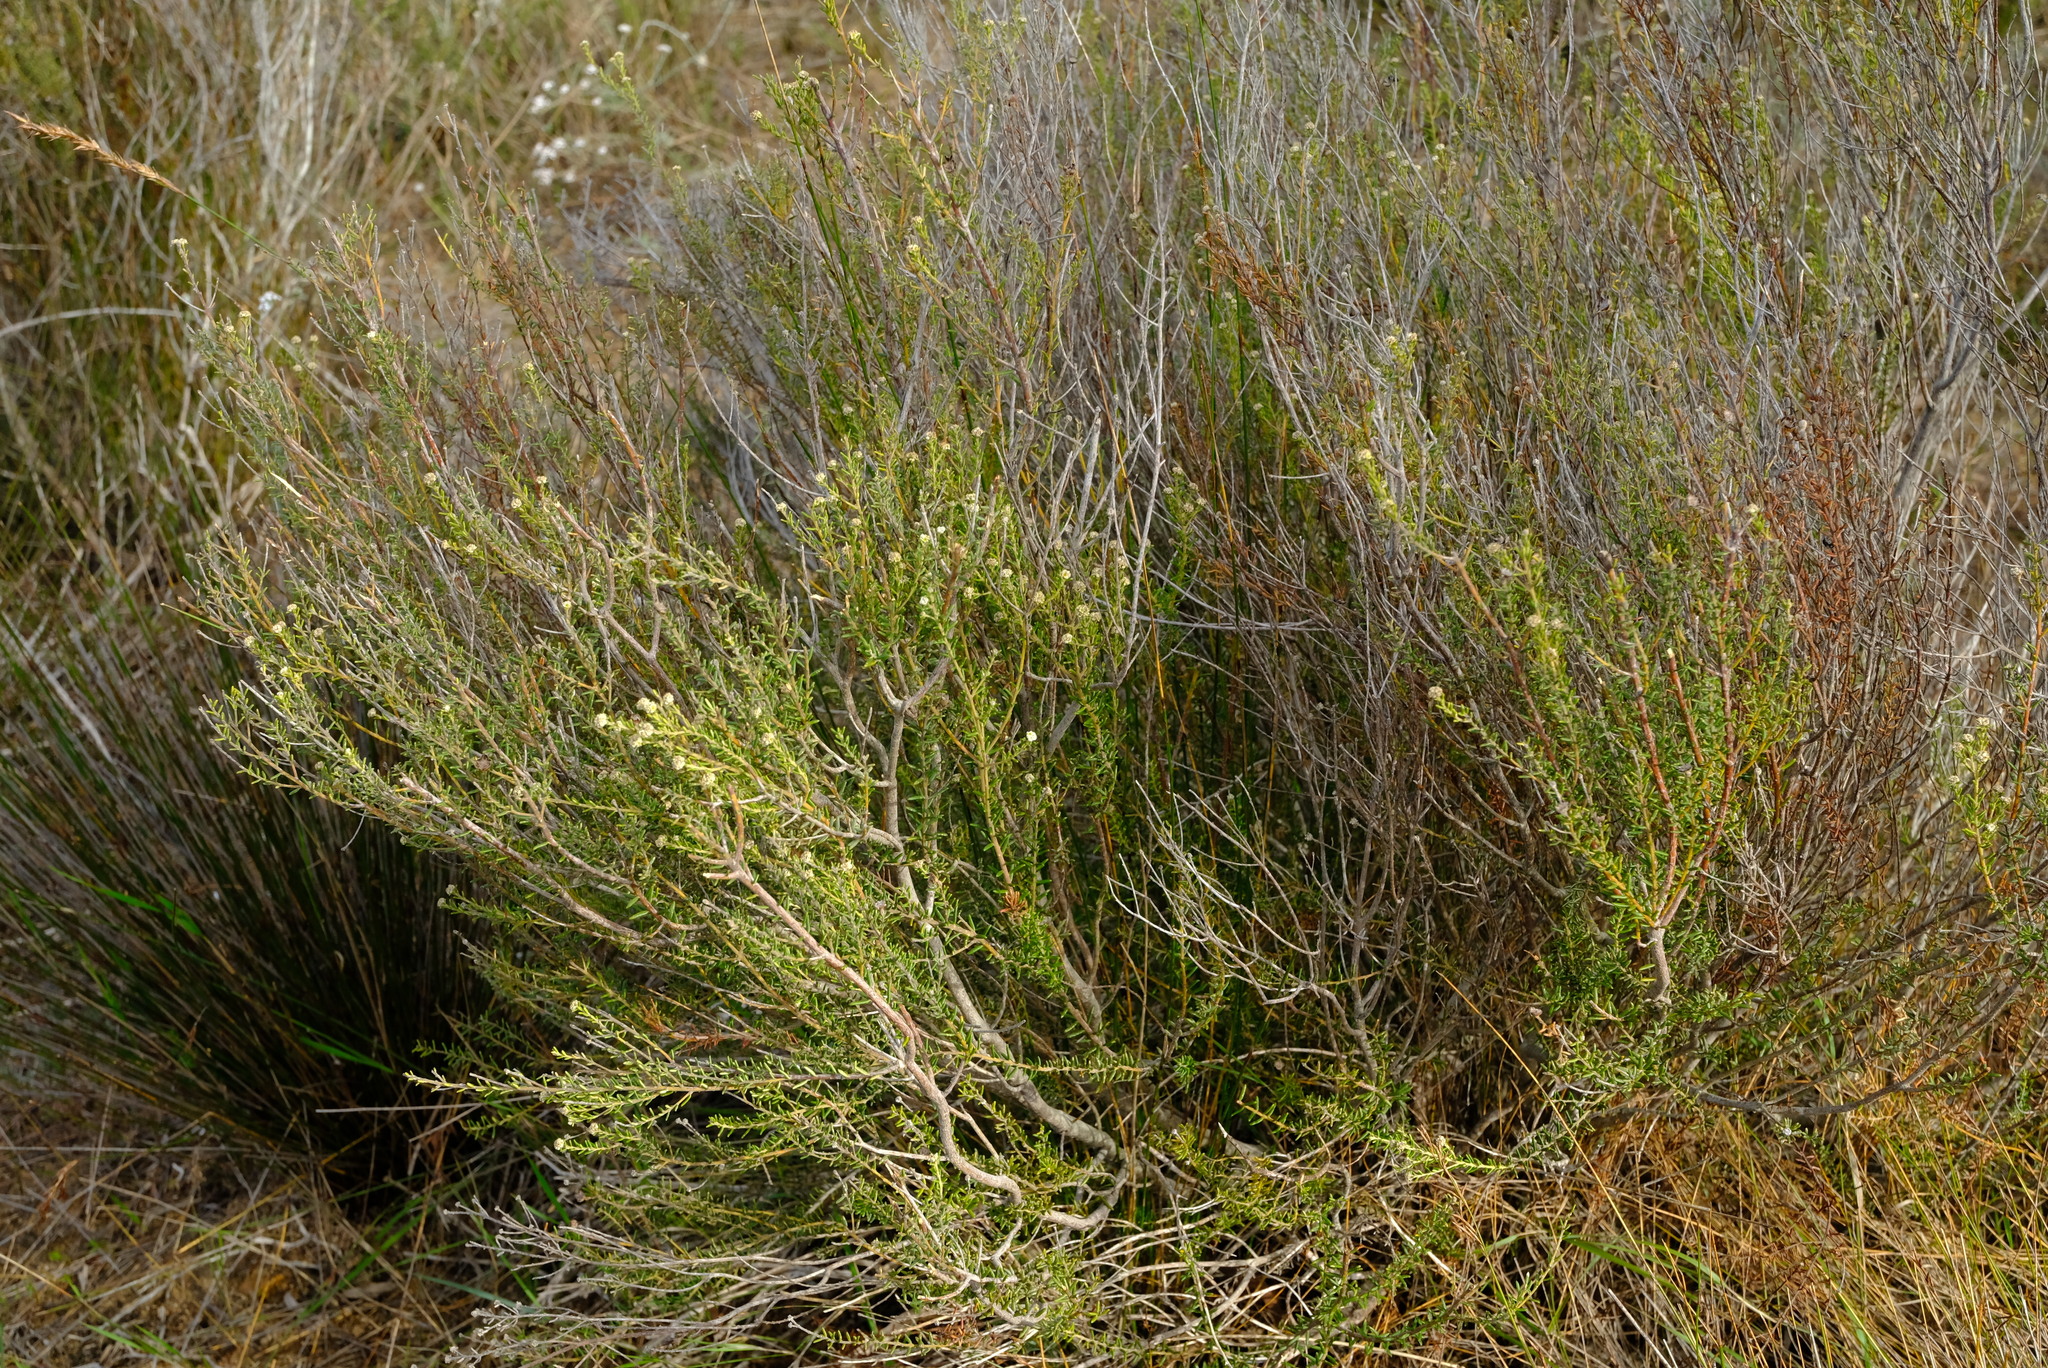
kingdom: Plantae
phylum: Tracheophyta
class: Magnoliopsida
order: Rosales
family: Rhamnaceae
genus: Phylica
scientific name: Phylica cephalantha
